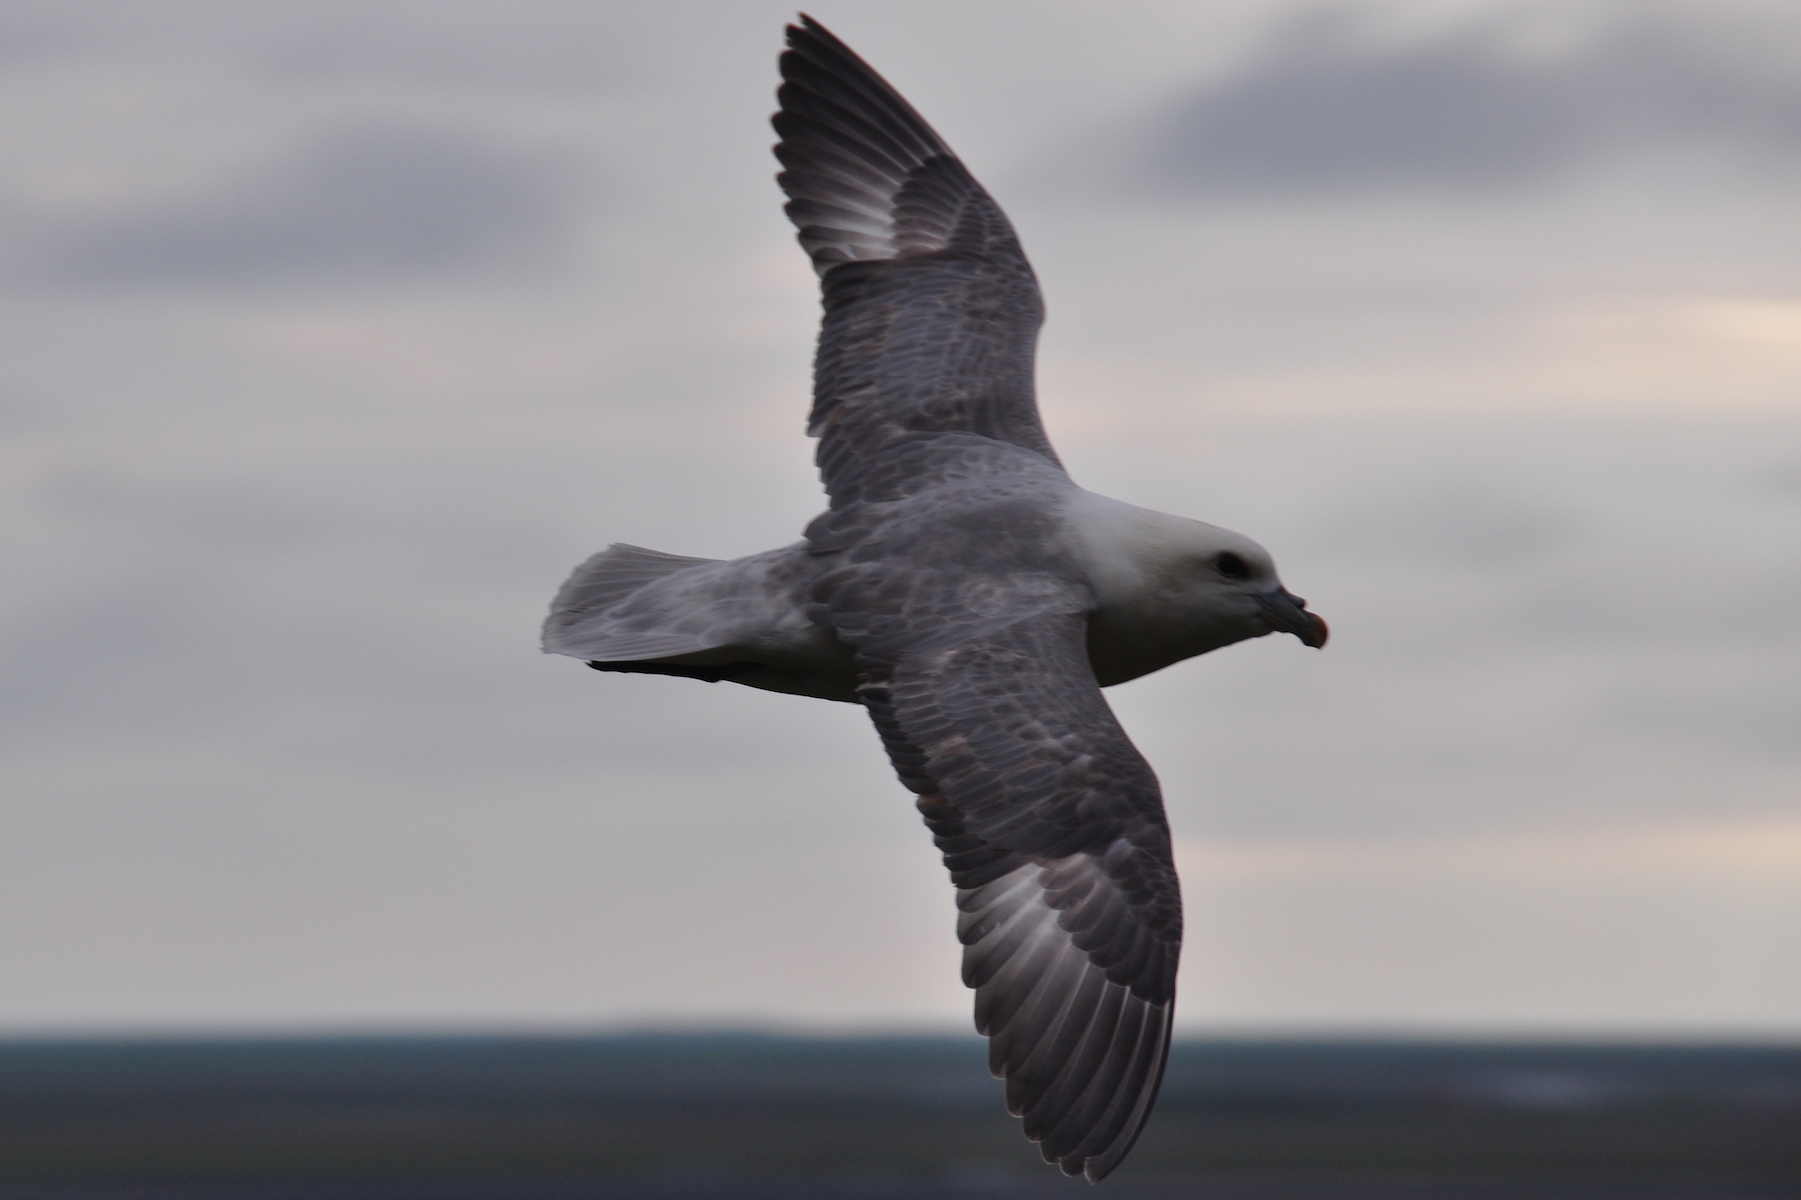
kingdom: Animalia
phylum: Chordata
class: Aves
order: Procellariiformes
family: Procellariidae
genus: Fulmarus
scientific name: Fulmarus glacialis
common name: Northern fulmar
